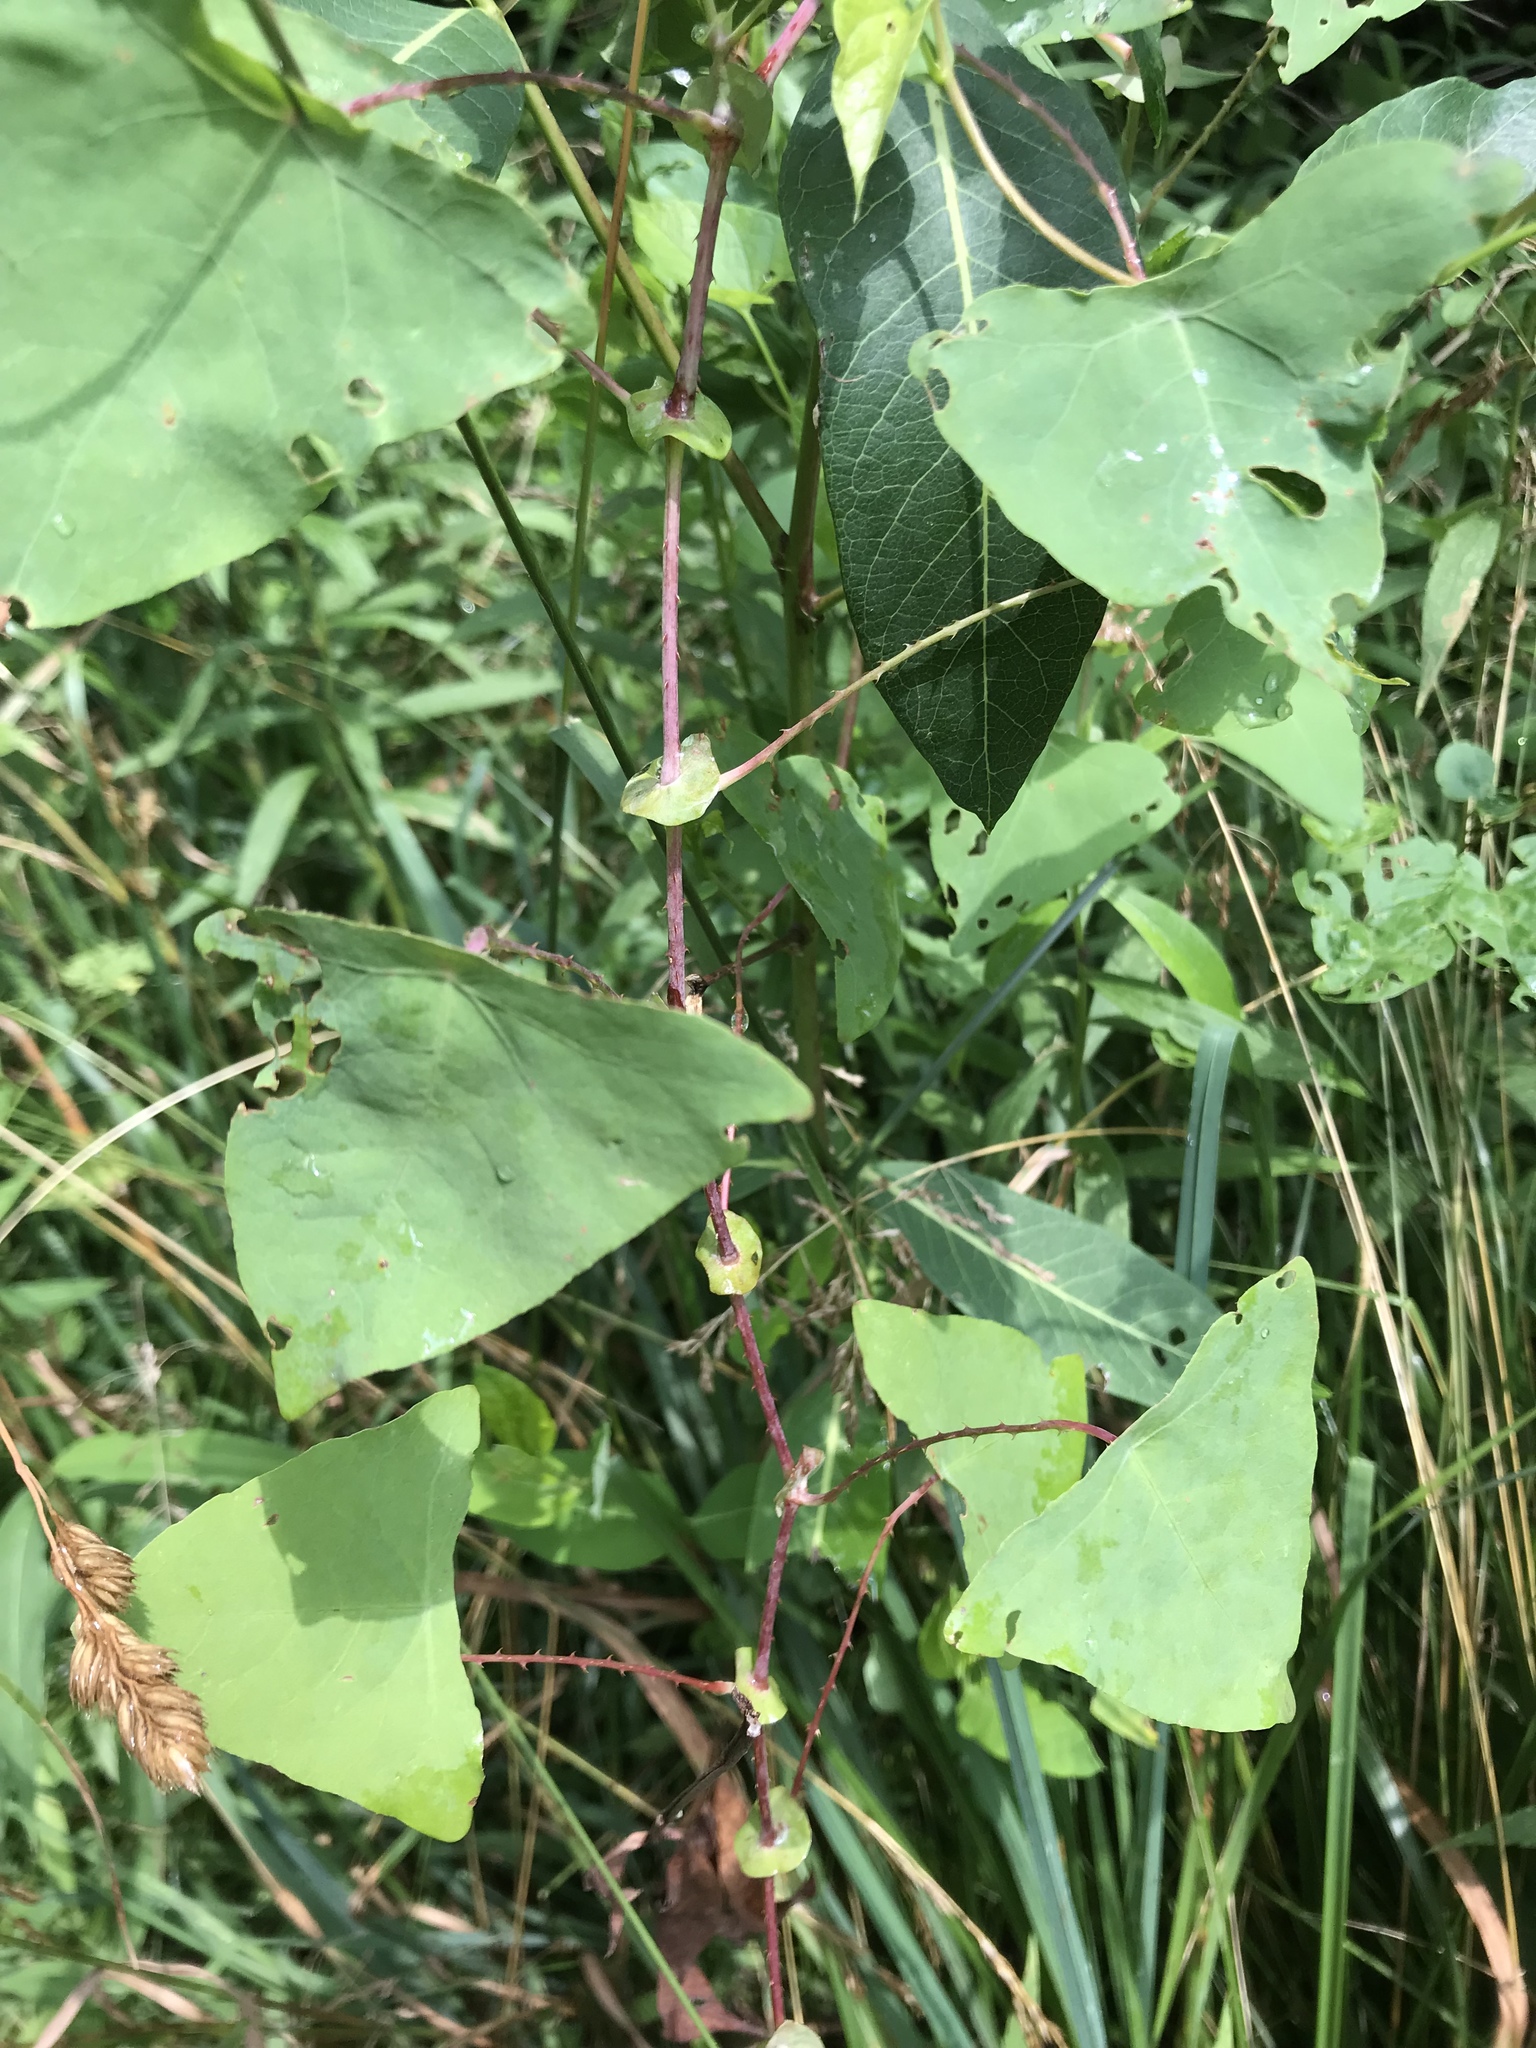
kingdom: Plantae
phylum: Tracheophyta
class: Magnoliopsida
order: Caryophyllales
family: Polygonaceae
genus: Persicaria
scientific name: Persicaria perfoliata
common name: Asiatic tearthumb
